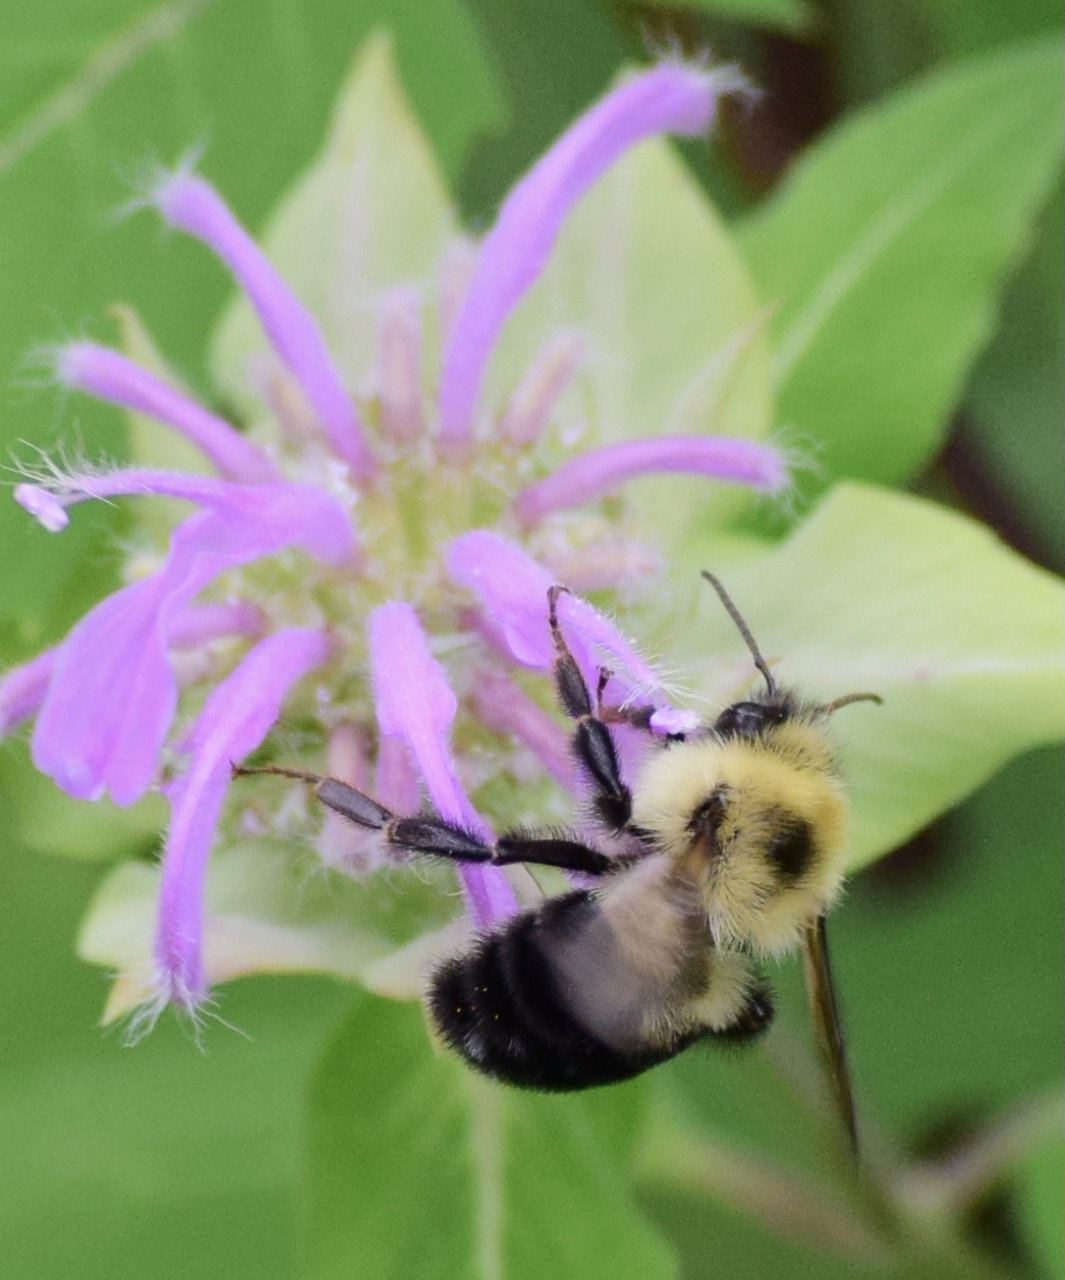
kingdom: Animalia
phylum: Arthropoda
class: Insecta
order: Hymenoptera
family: Apidae
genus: Bombus
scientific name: Bombus bimaculatus
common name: Two-spotted bumble bee
